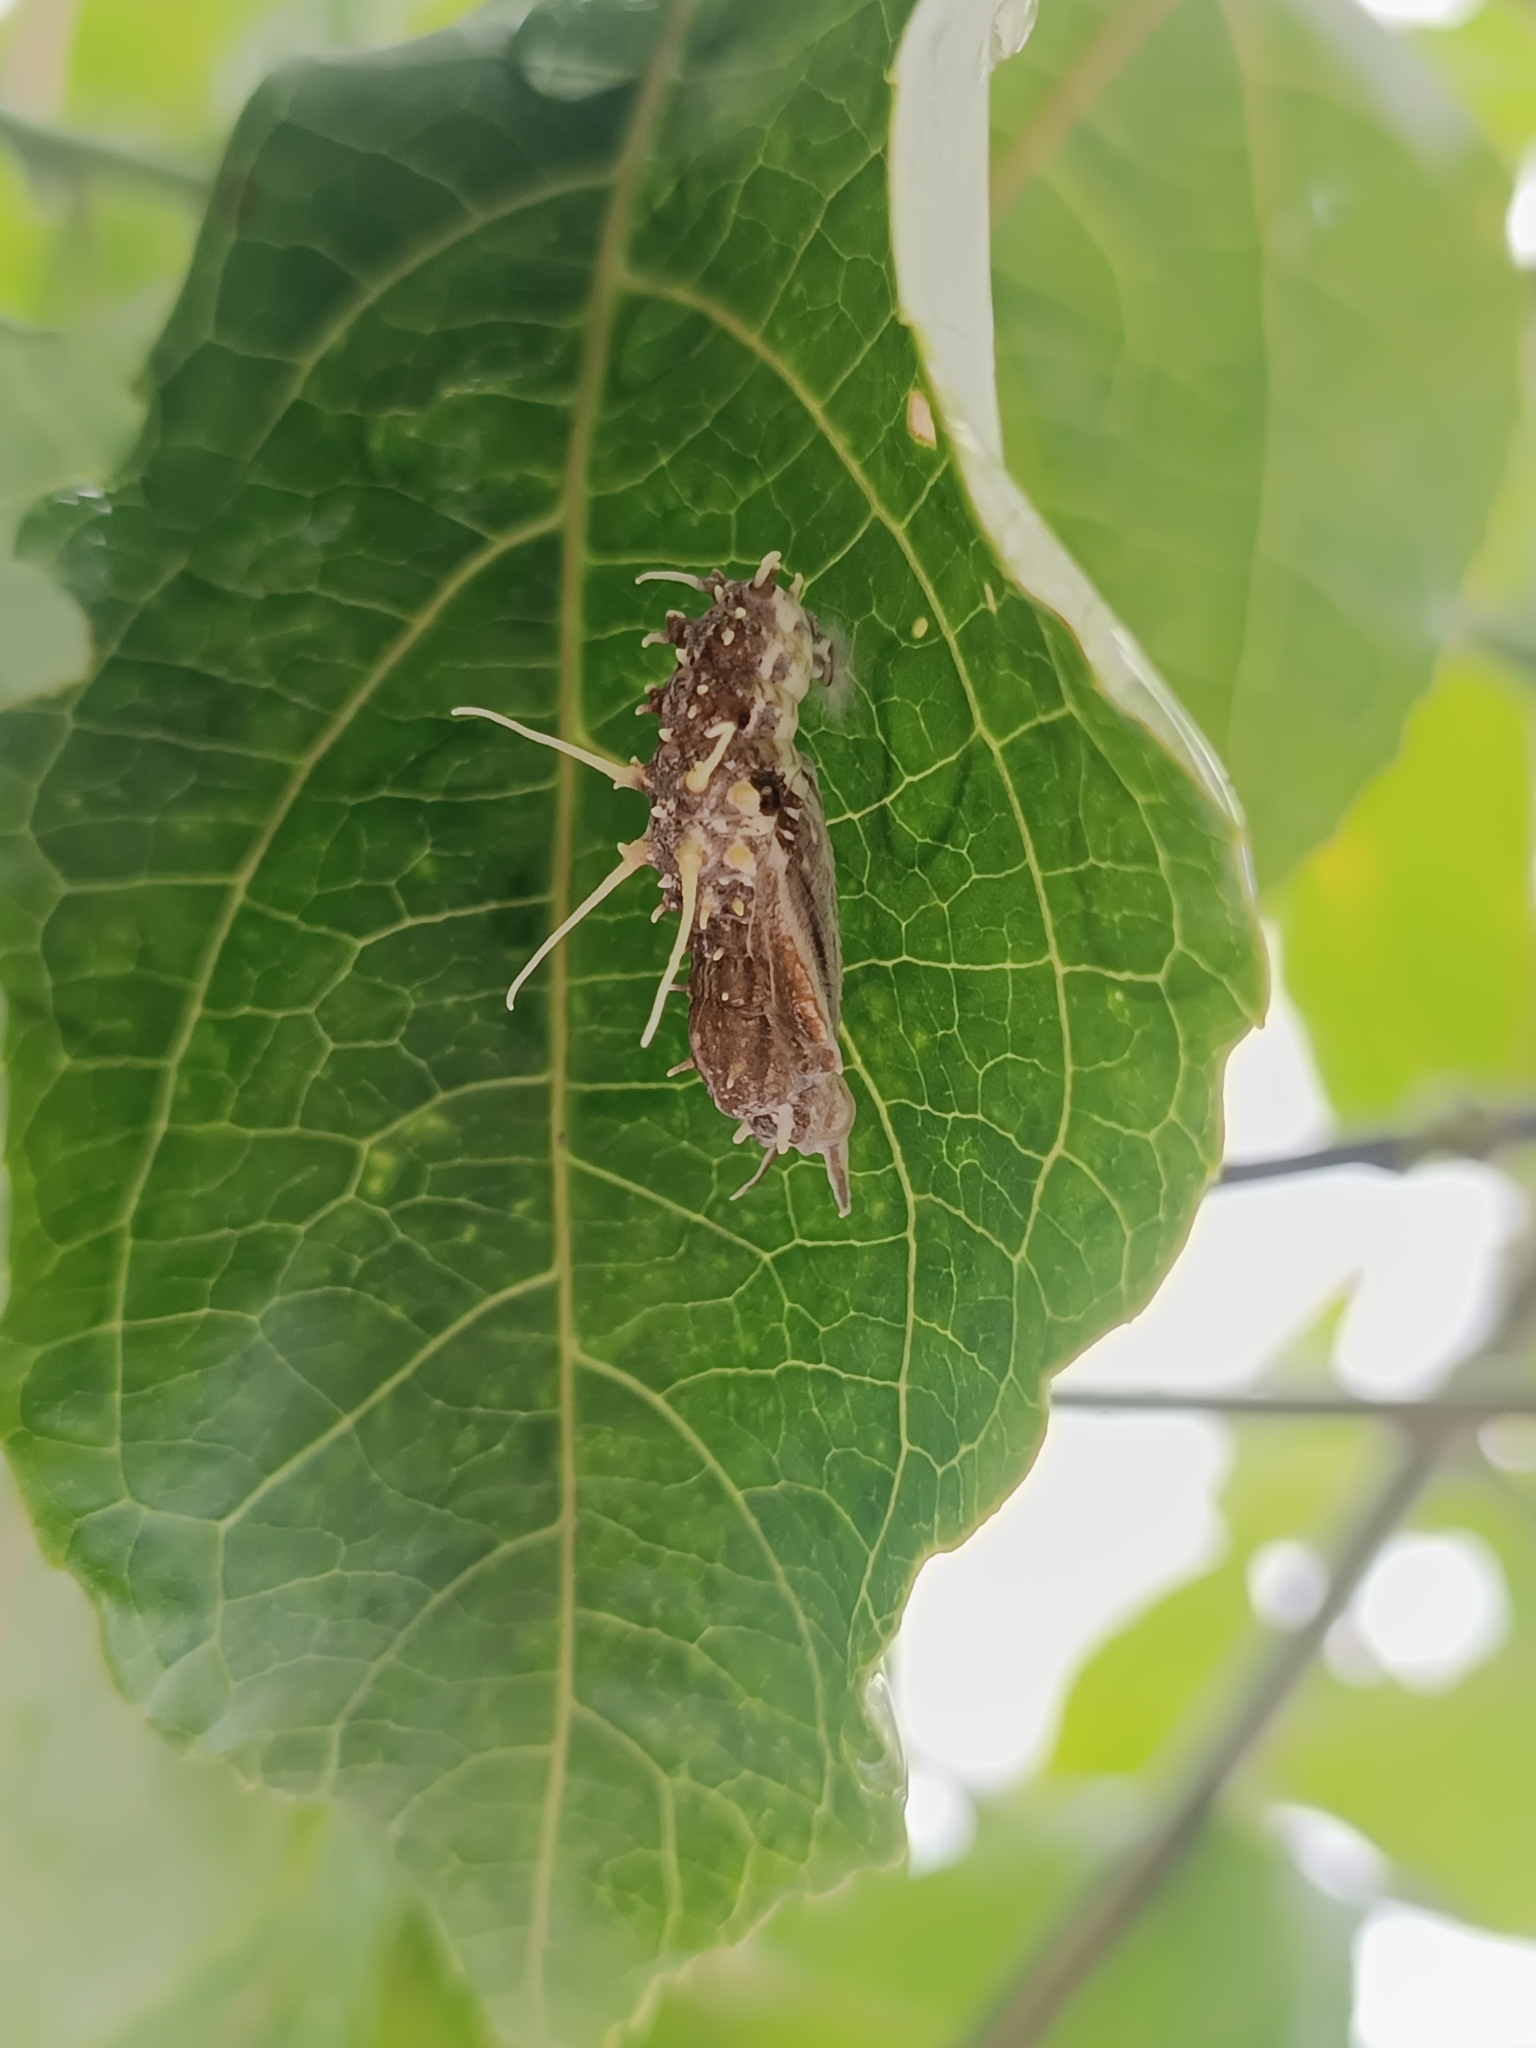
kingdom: Animalia
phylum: Arthropoda
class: Insecta
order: Lepidoptera
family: Nymphalidae
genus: Eueides
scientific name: Eueides isabella
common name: Isabella's longwing
